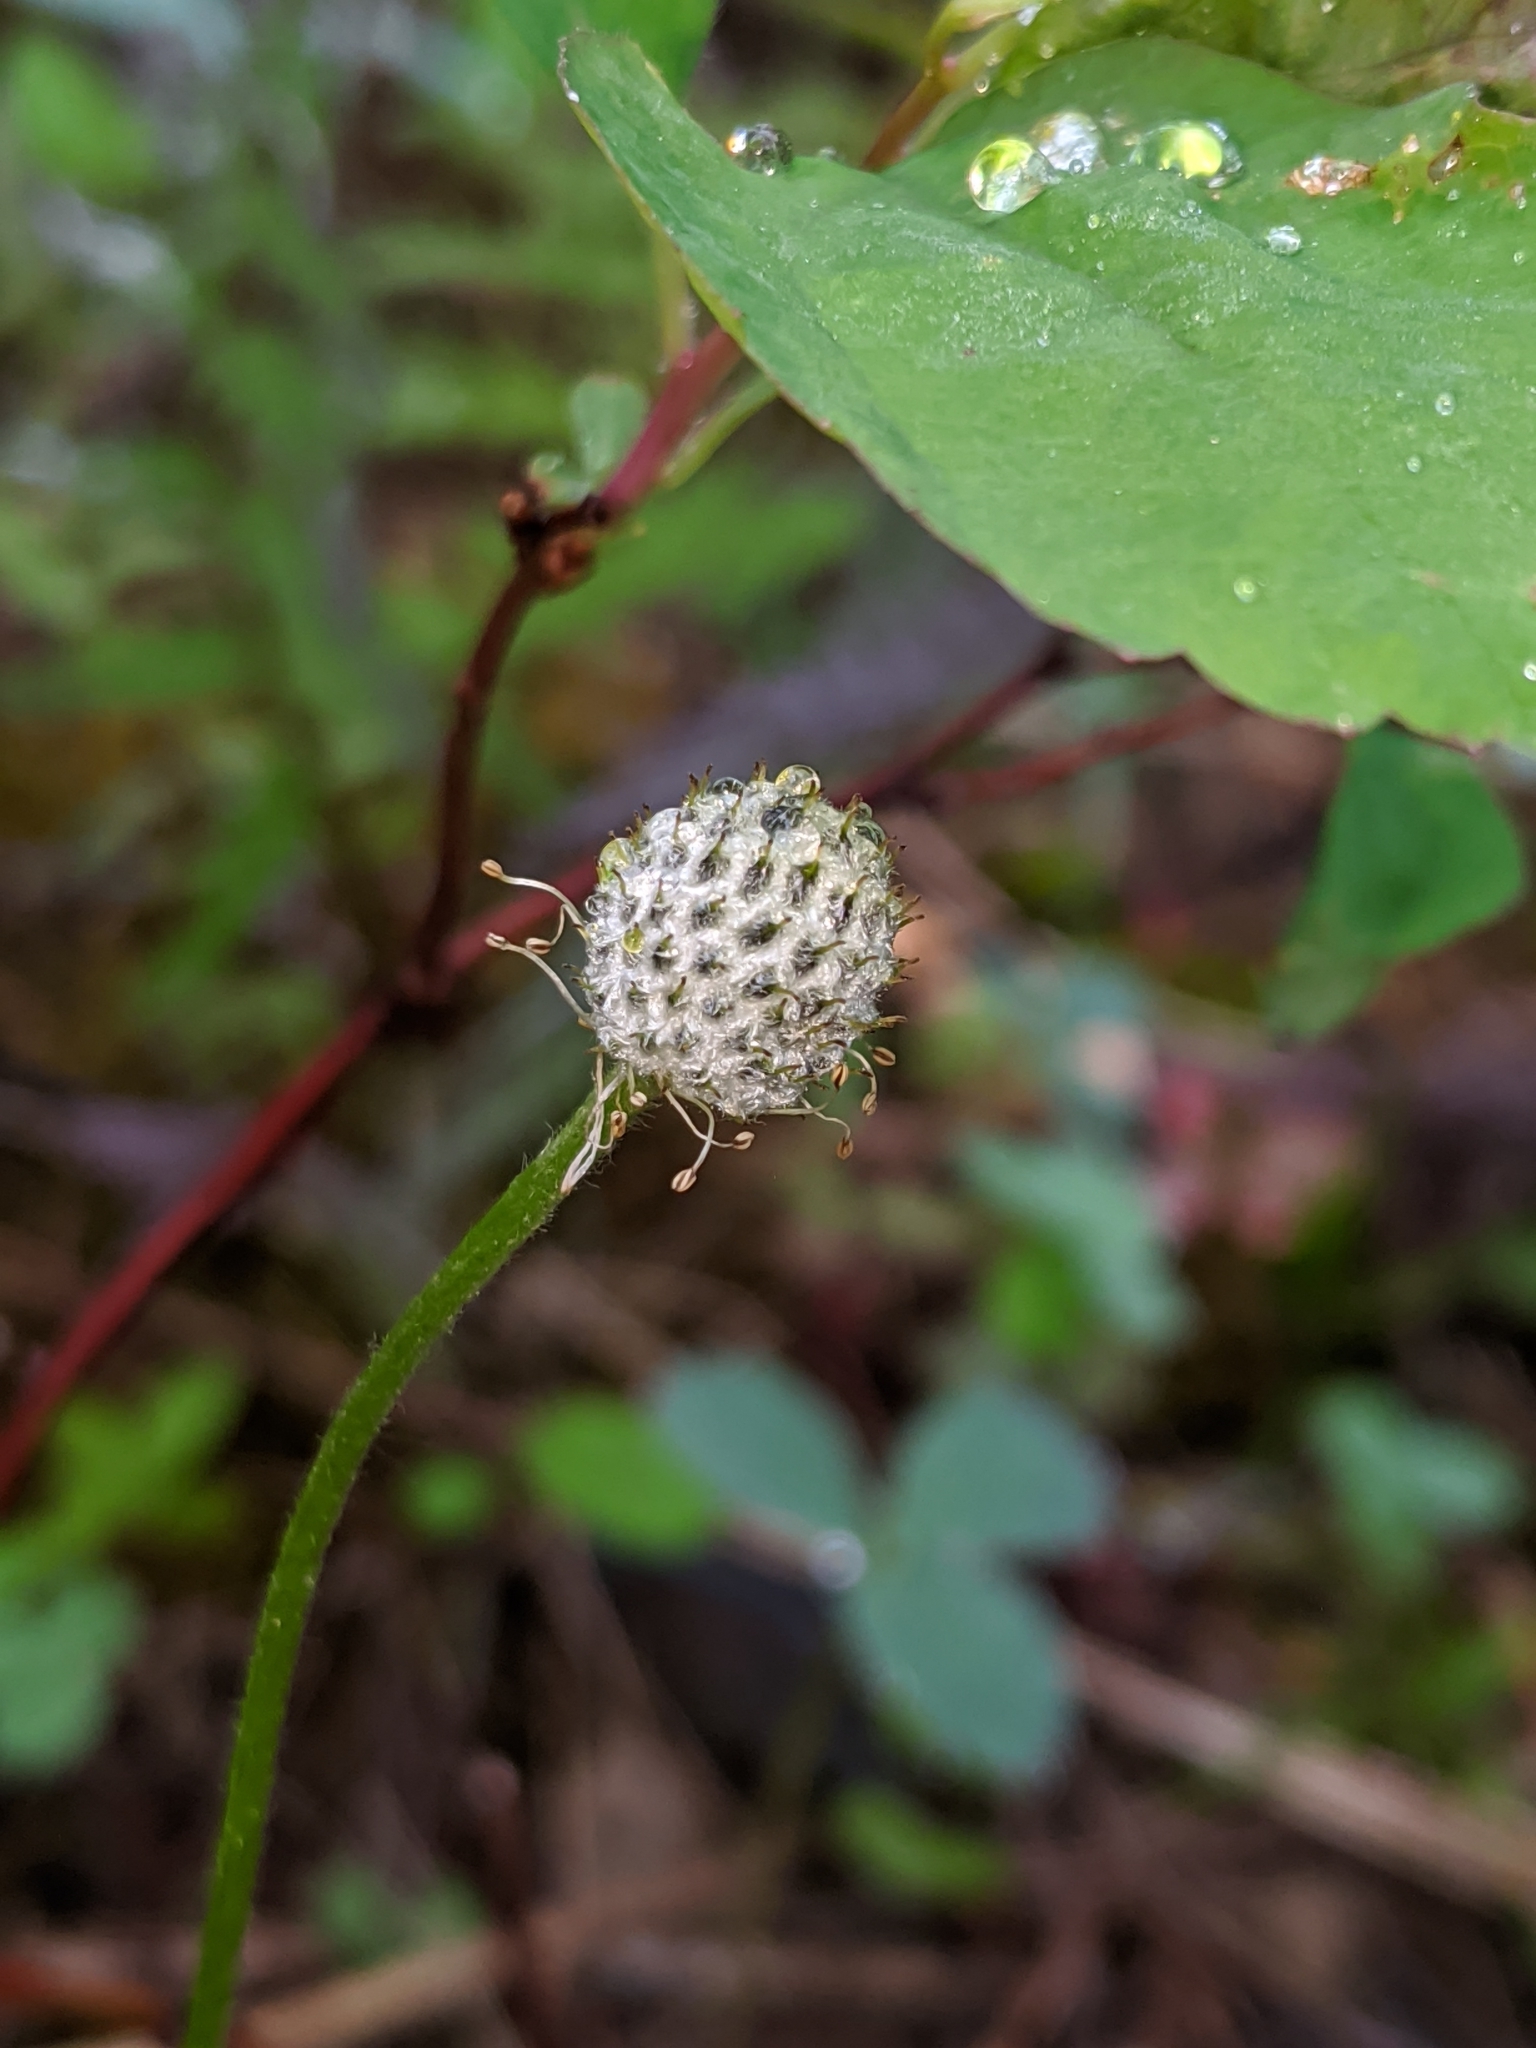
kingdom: Plantae
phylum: Tracheophyta
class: Magnoliopsida
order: Ranunculales
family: Ranunculaceae
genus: Anemone
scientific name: Anemone parviflora
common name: Northern anemone
